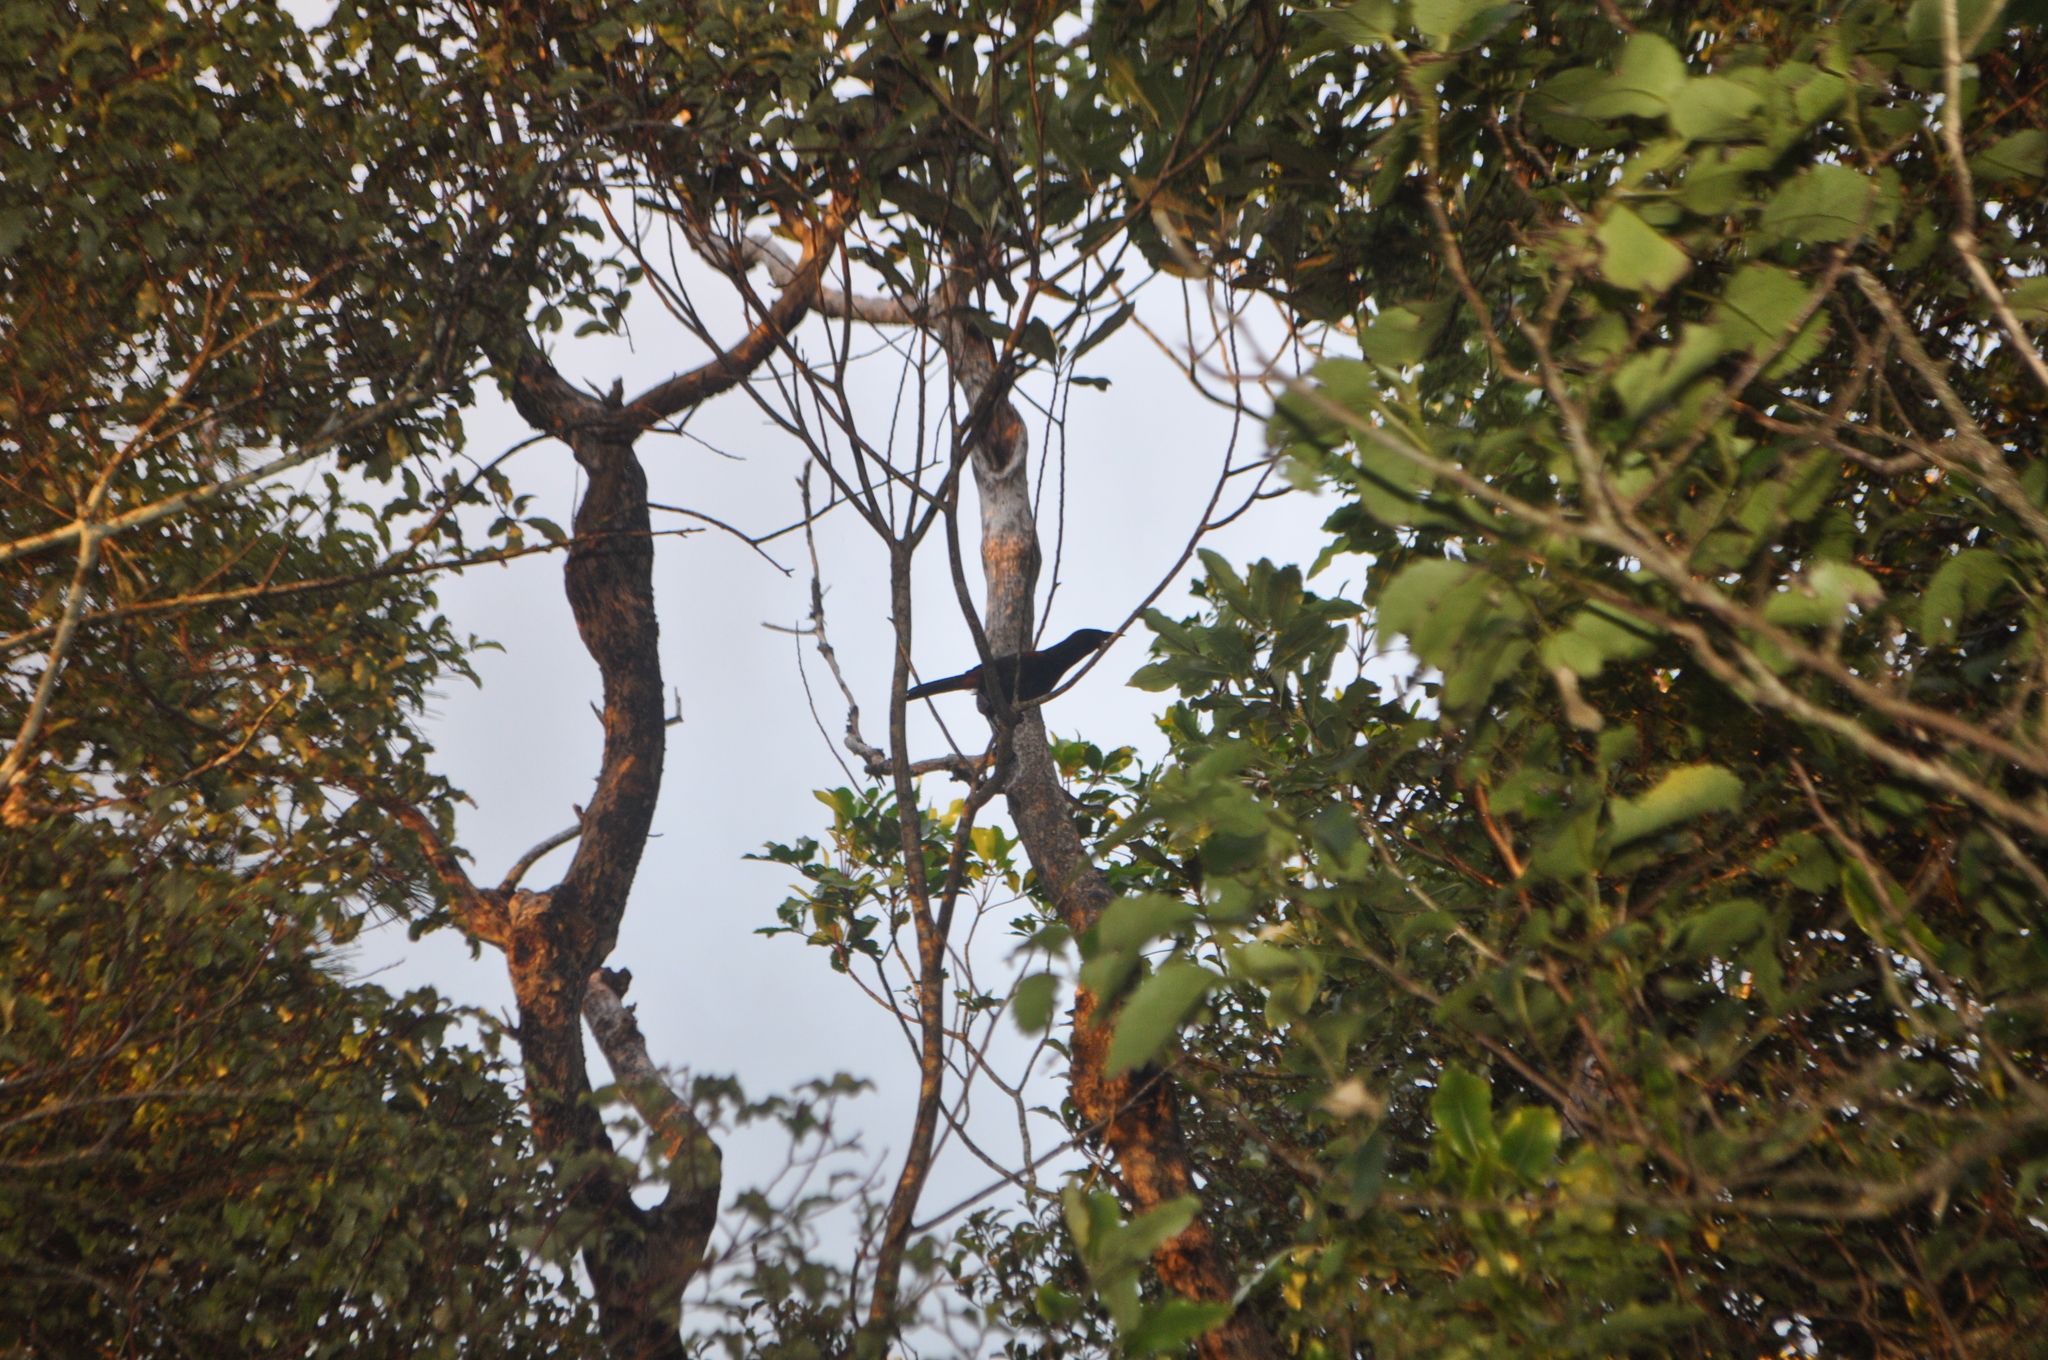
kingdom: Animalia
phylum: Chordata
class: Aves
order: Passeriformes
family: Callaeatidae
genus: Philesturnus
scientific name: Philesturnus carunculatus
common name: South island saddleback
